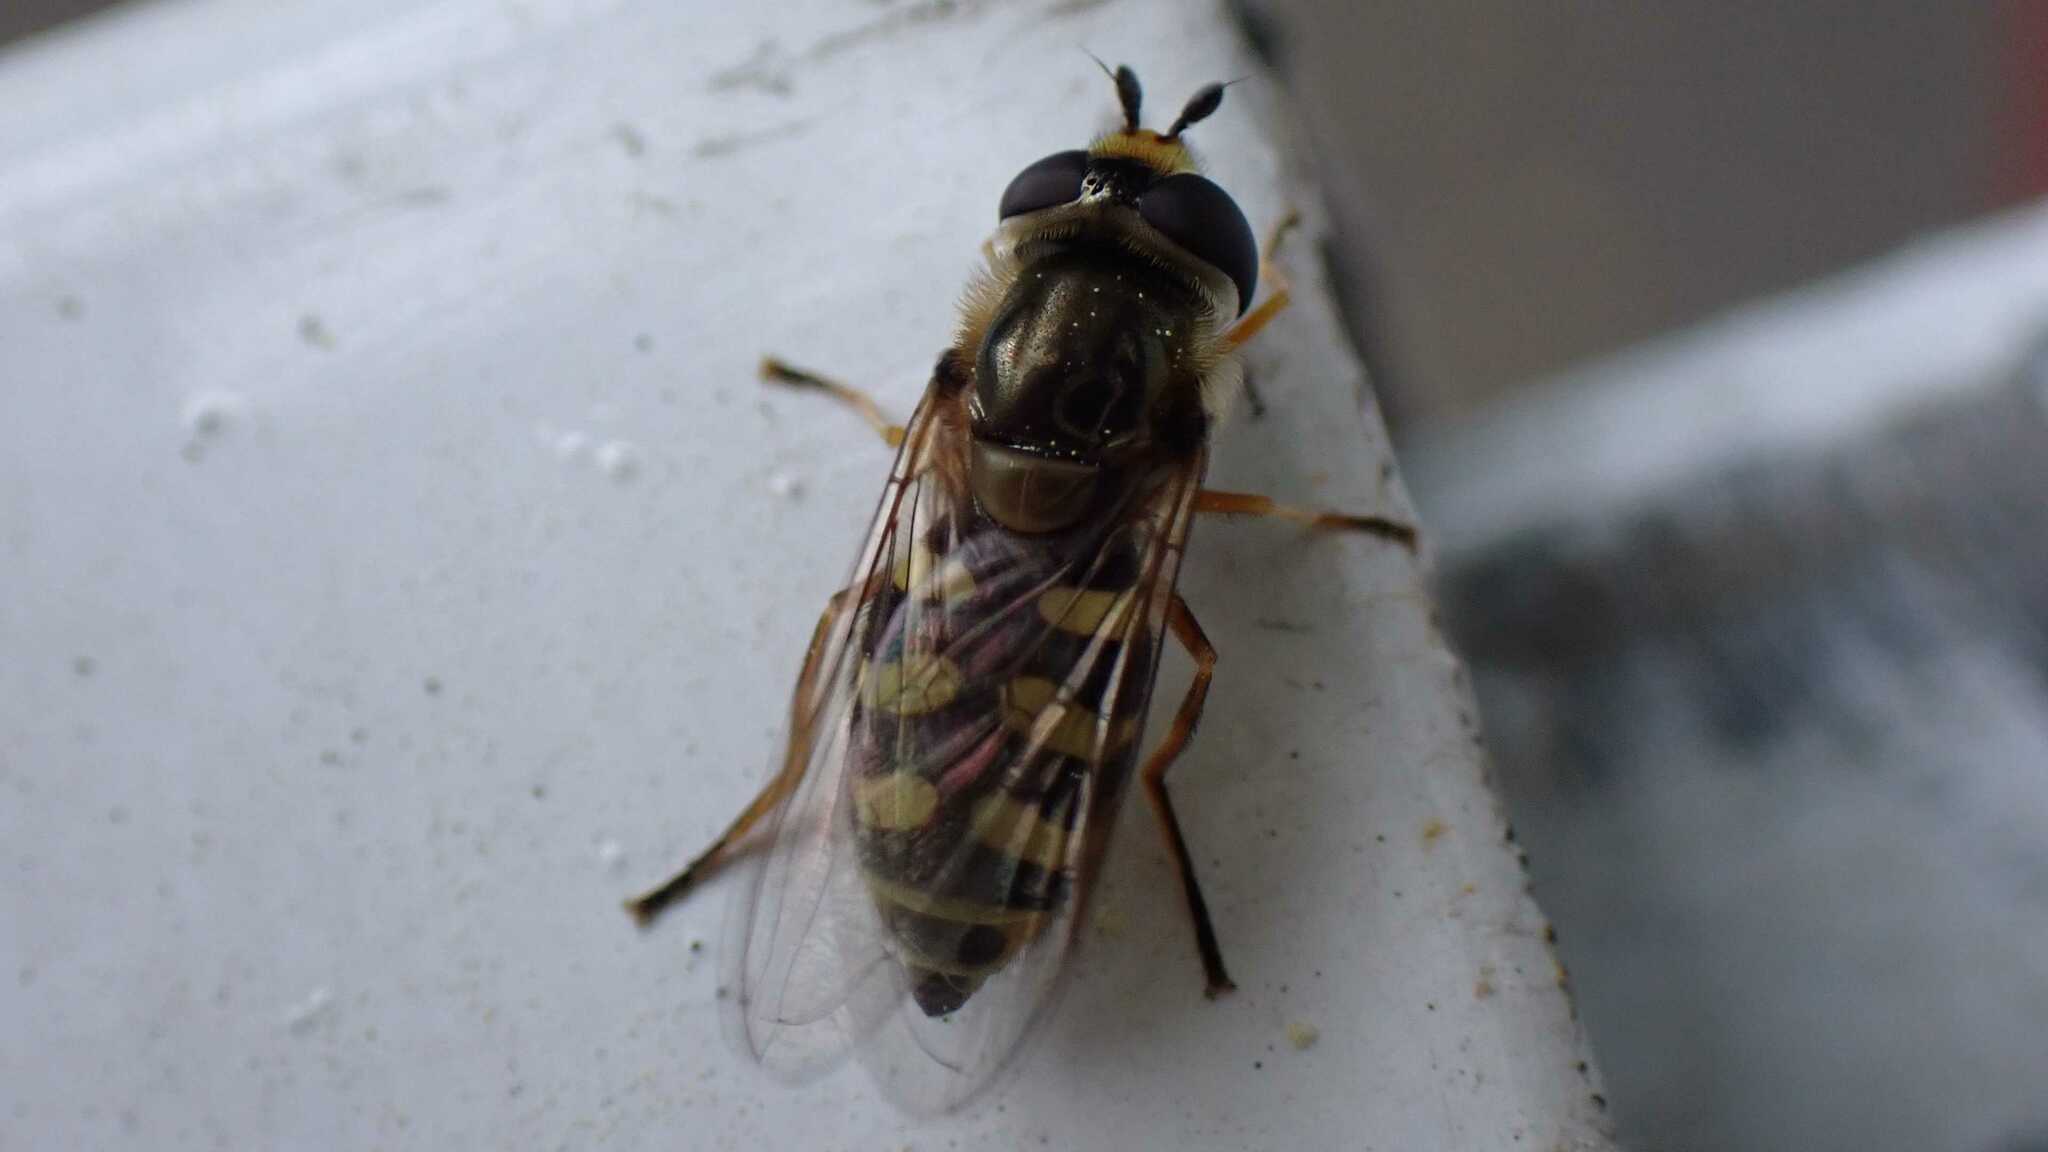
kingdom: Animalia
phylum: Arthropoda
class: Insecta
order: Diptera
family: Syrphidae
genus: Eupeodes
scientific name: Eupeodes corollae
